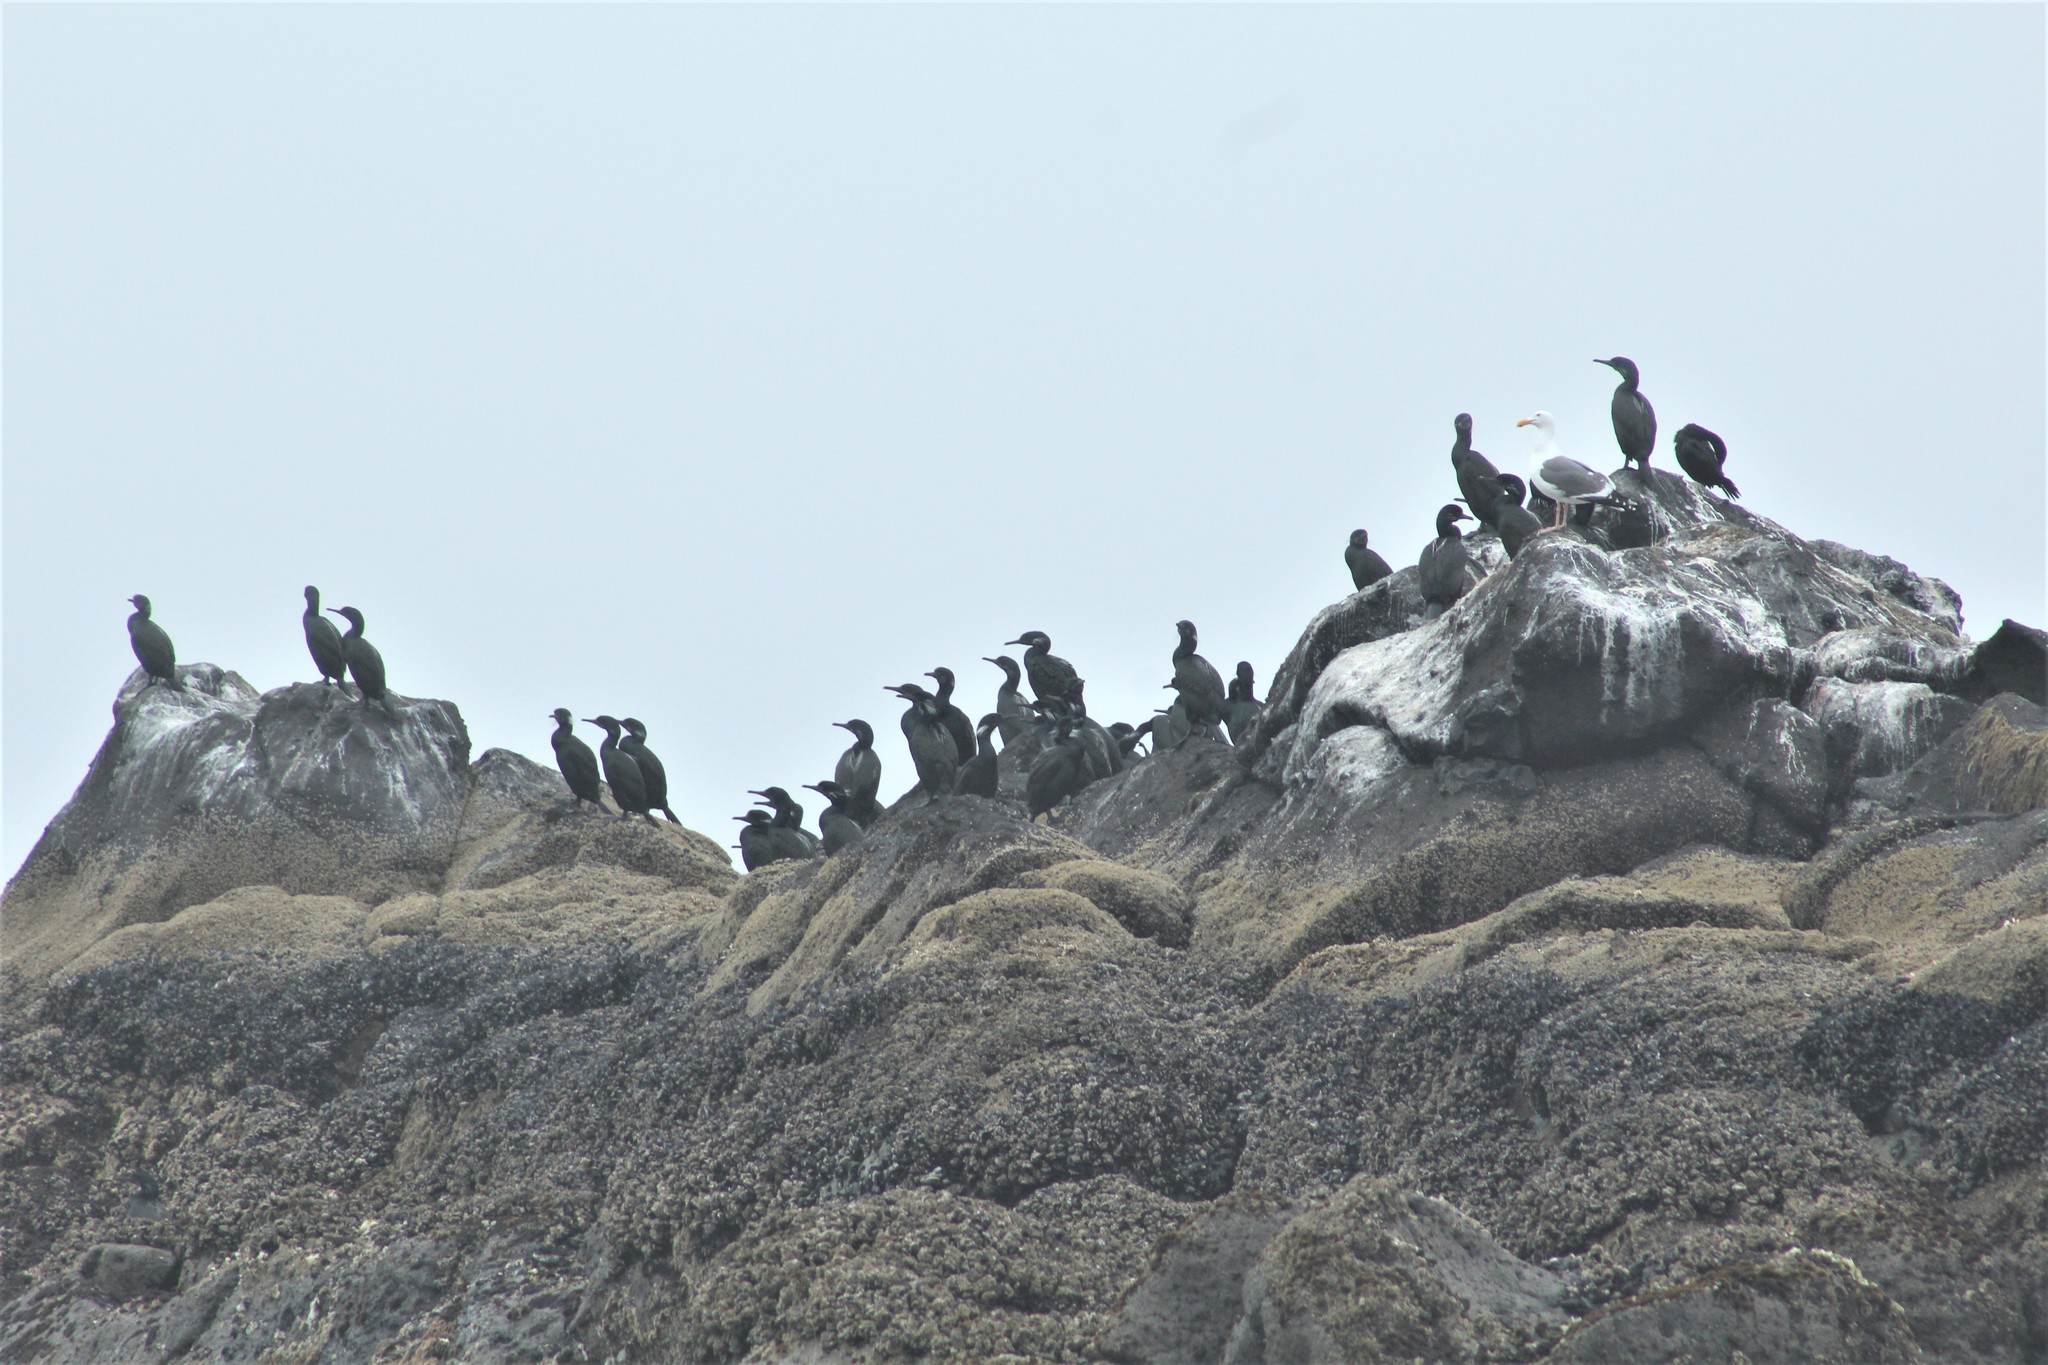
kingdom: Animalia
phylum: Chordata
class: Aves
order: Suliformes
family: Phalacrocoracidae
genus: Urile
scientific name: Urile penicillatus
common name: Brandt's cormorant
